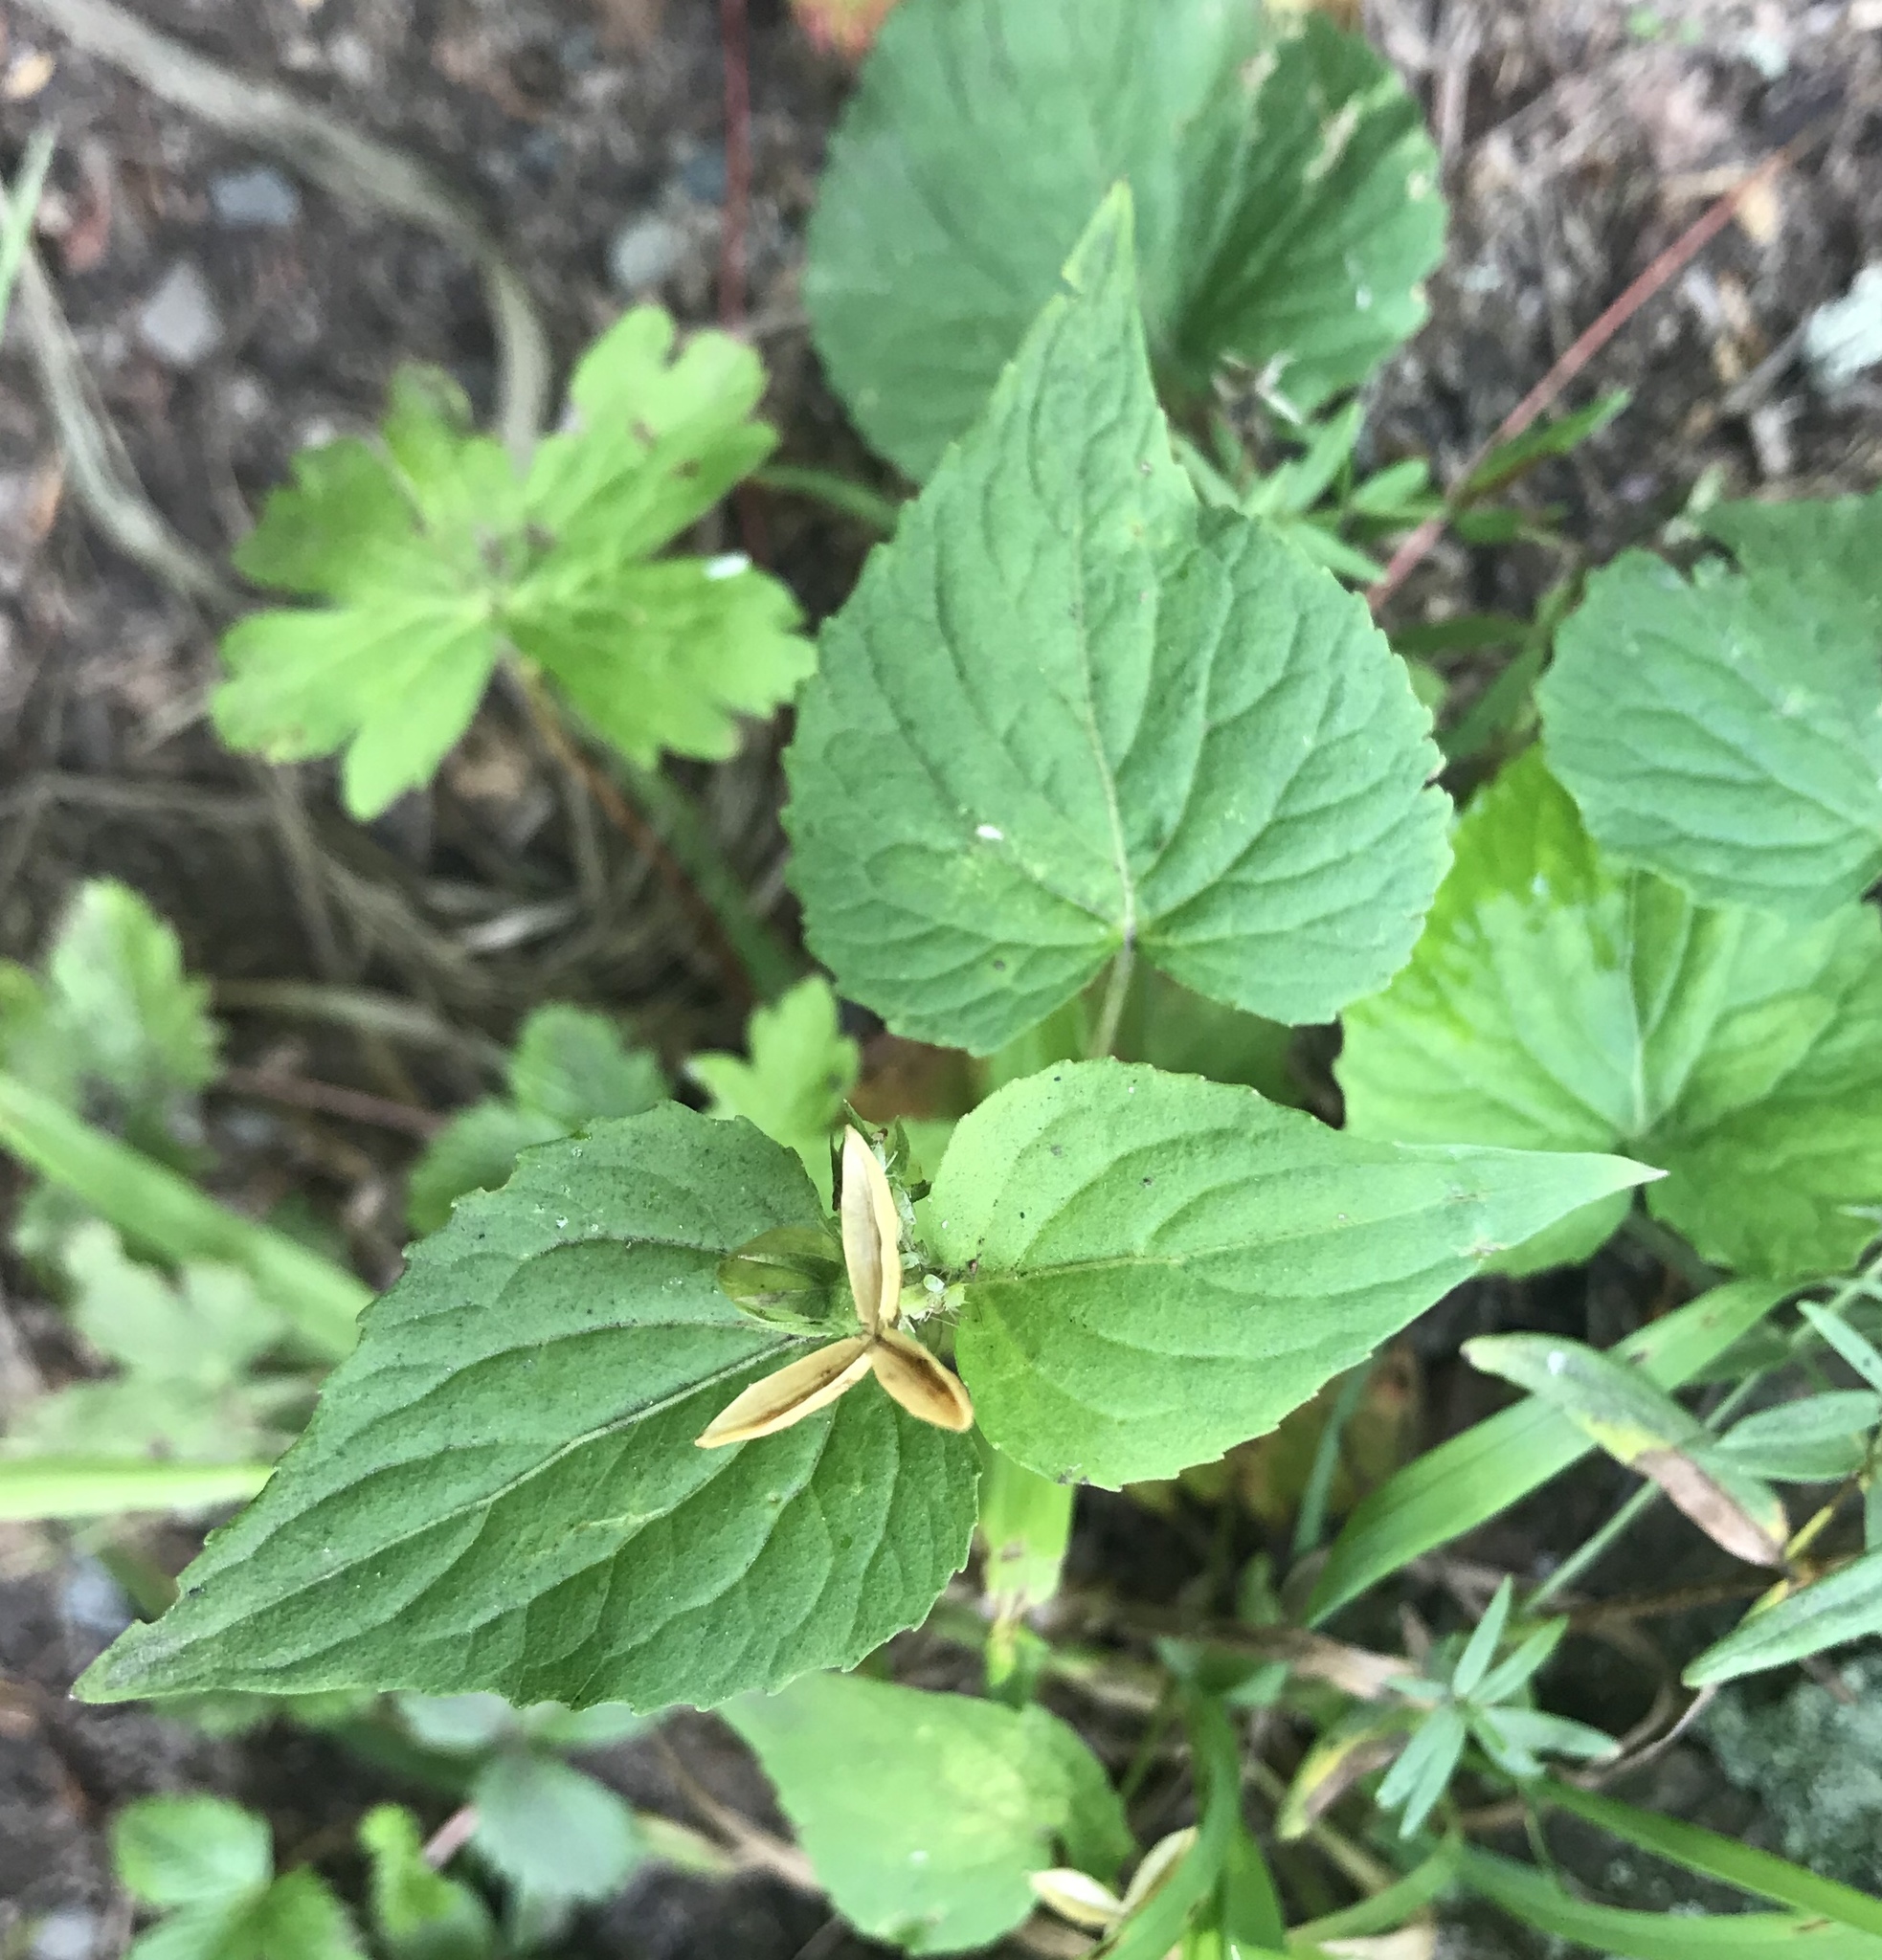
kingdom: Plantae
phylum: Tracheophyta
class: Magnoliopsida
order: Malpighiales
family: Violaceae
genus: Viola
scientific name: Viola canadensis
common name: Canada violet
